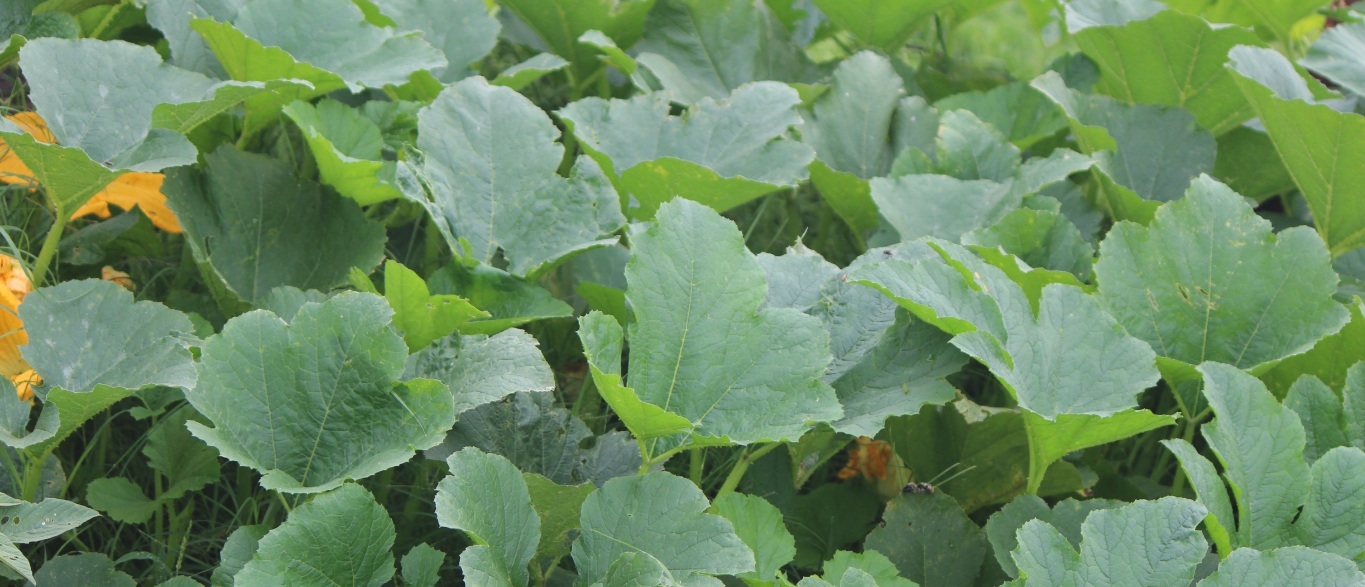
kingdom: Plantae
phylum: Tracheophyta
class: Magnoliopsida
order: Cucurbitales
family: Cucurbitaceae
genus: Cucurbita
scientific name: Cucurbita pepo
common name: Marrow
